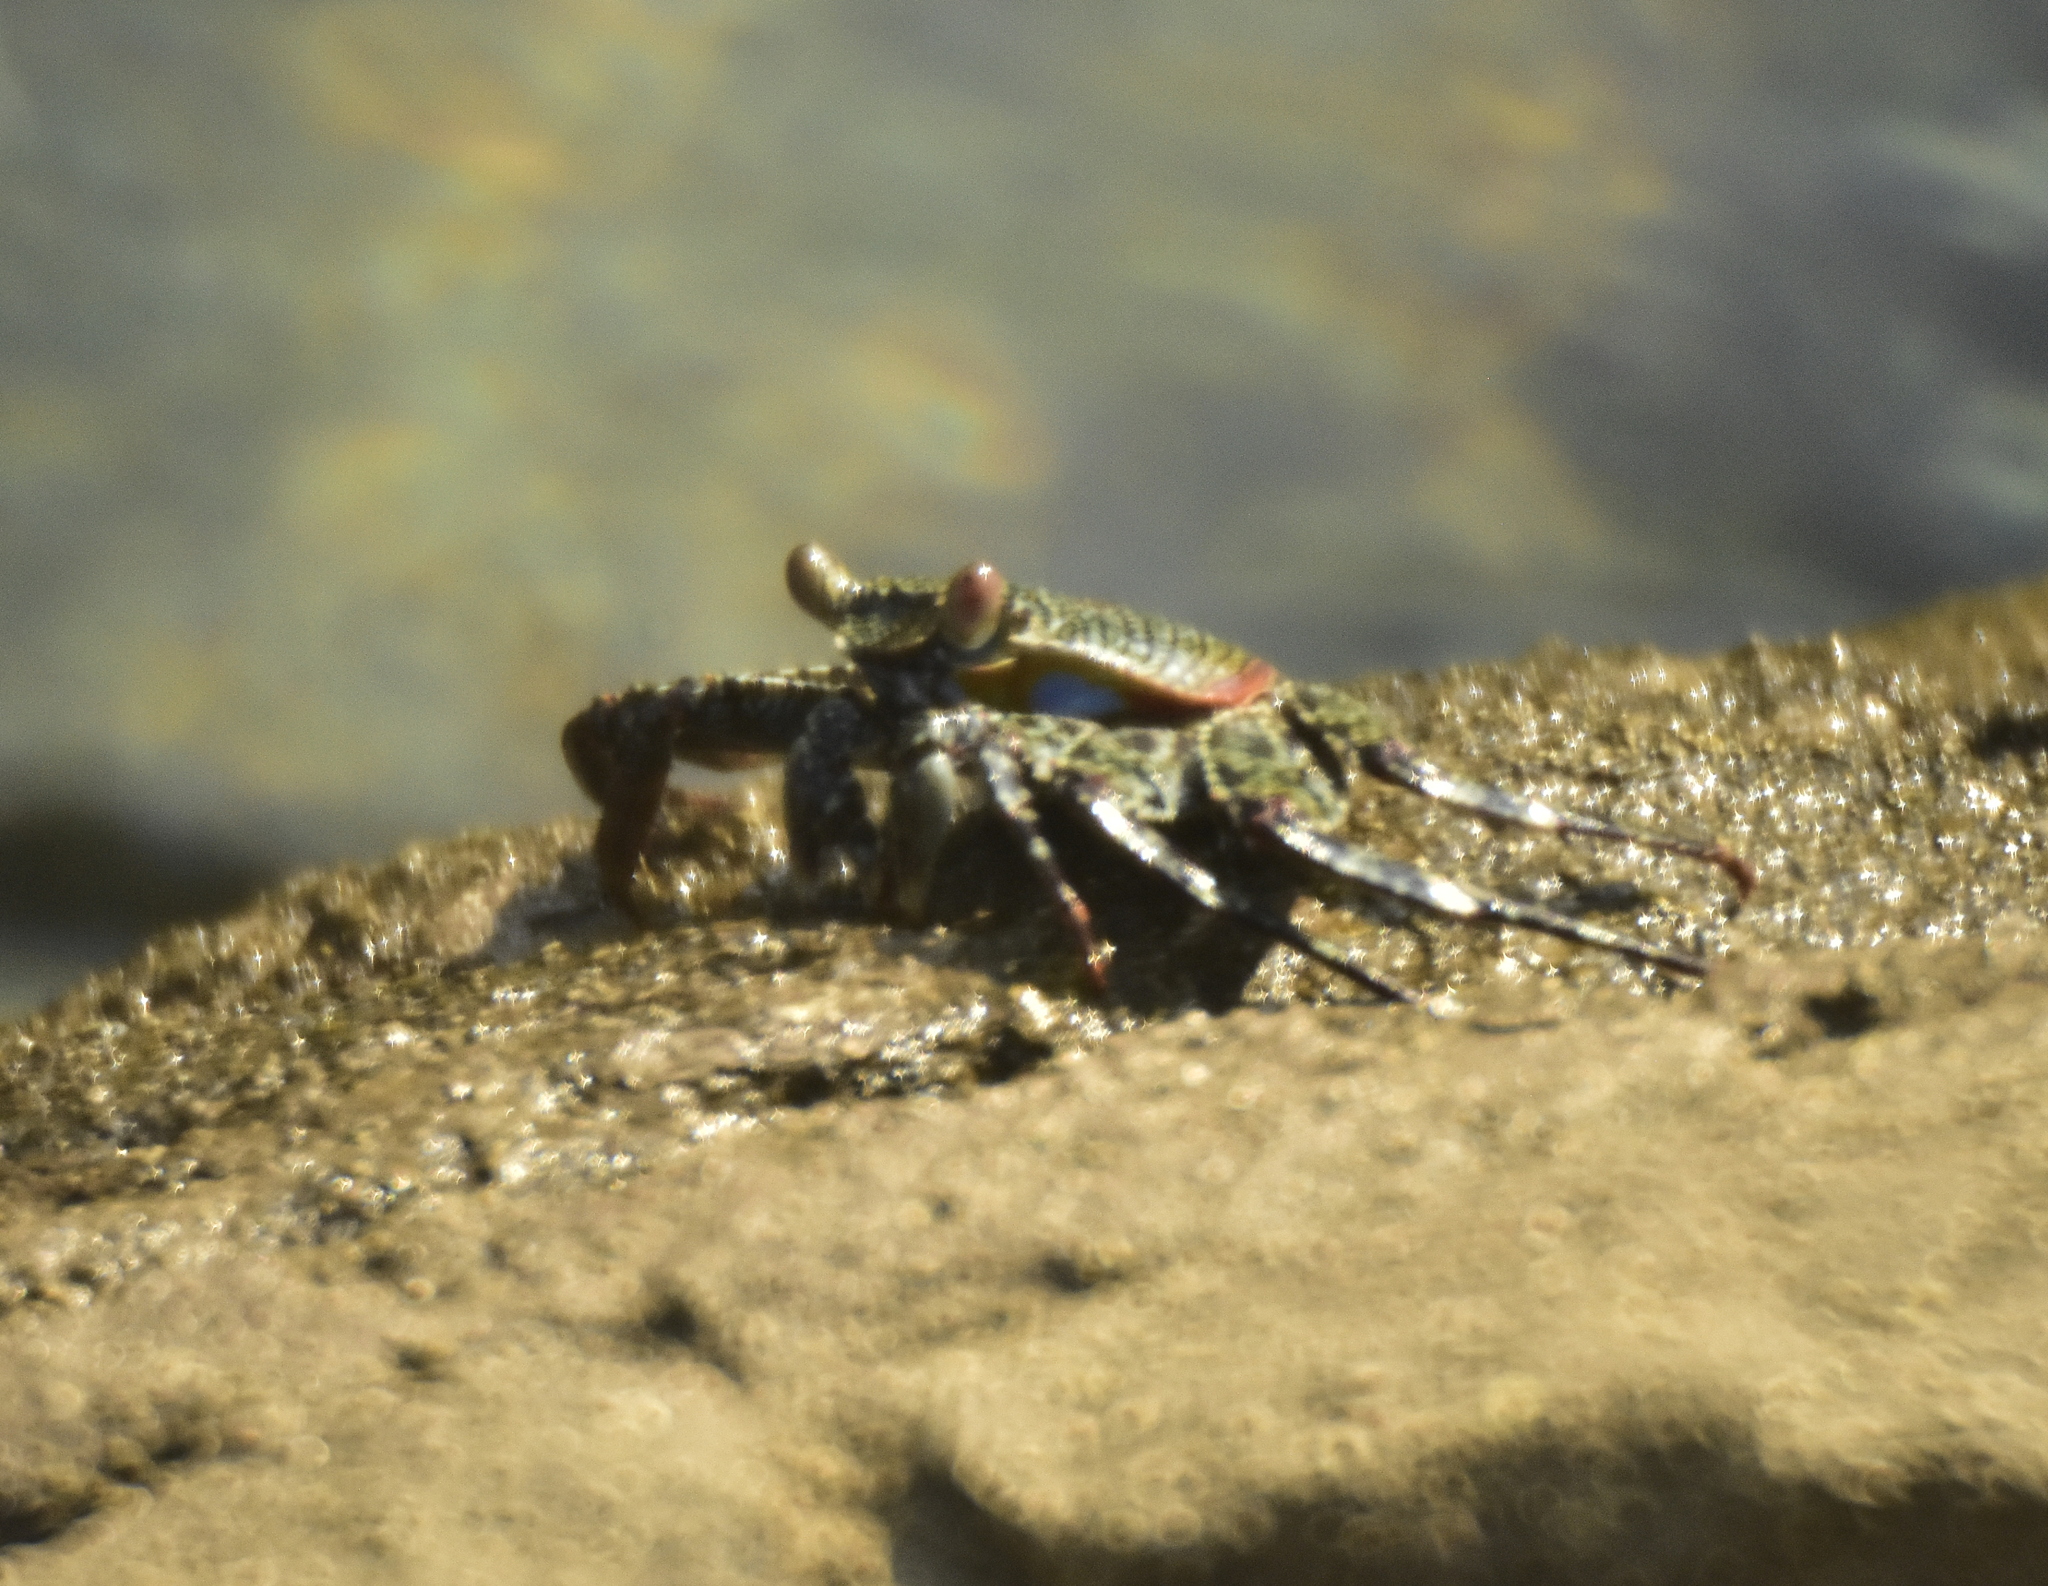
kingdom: Animalia
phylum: Arthropoda
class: Malacostraca
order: Decapoda
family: Grapsidae
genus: Grapsus
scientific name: Grapsus grapsus
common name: Sally lightfoot
